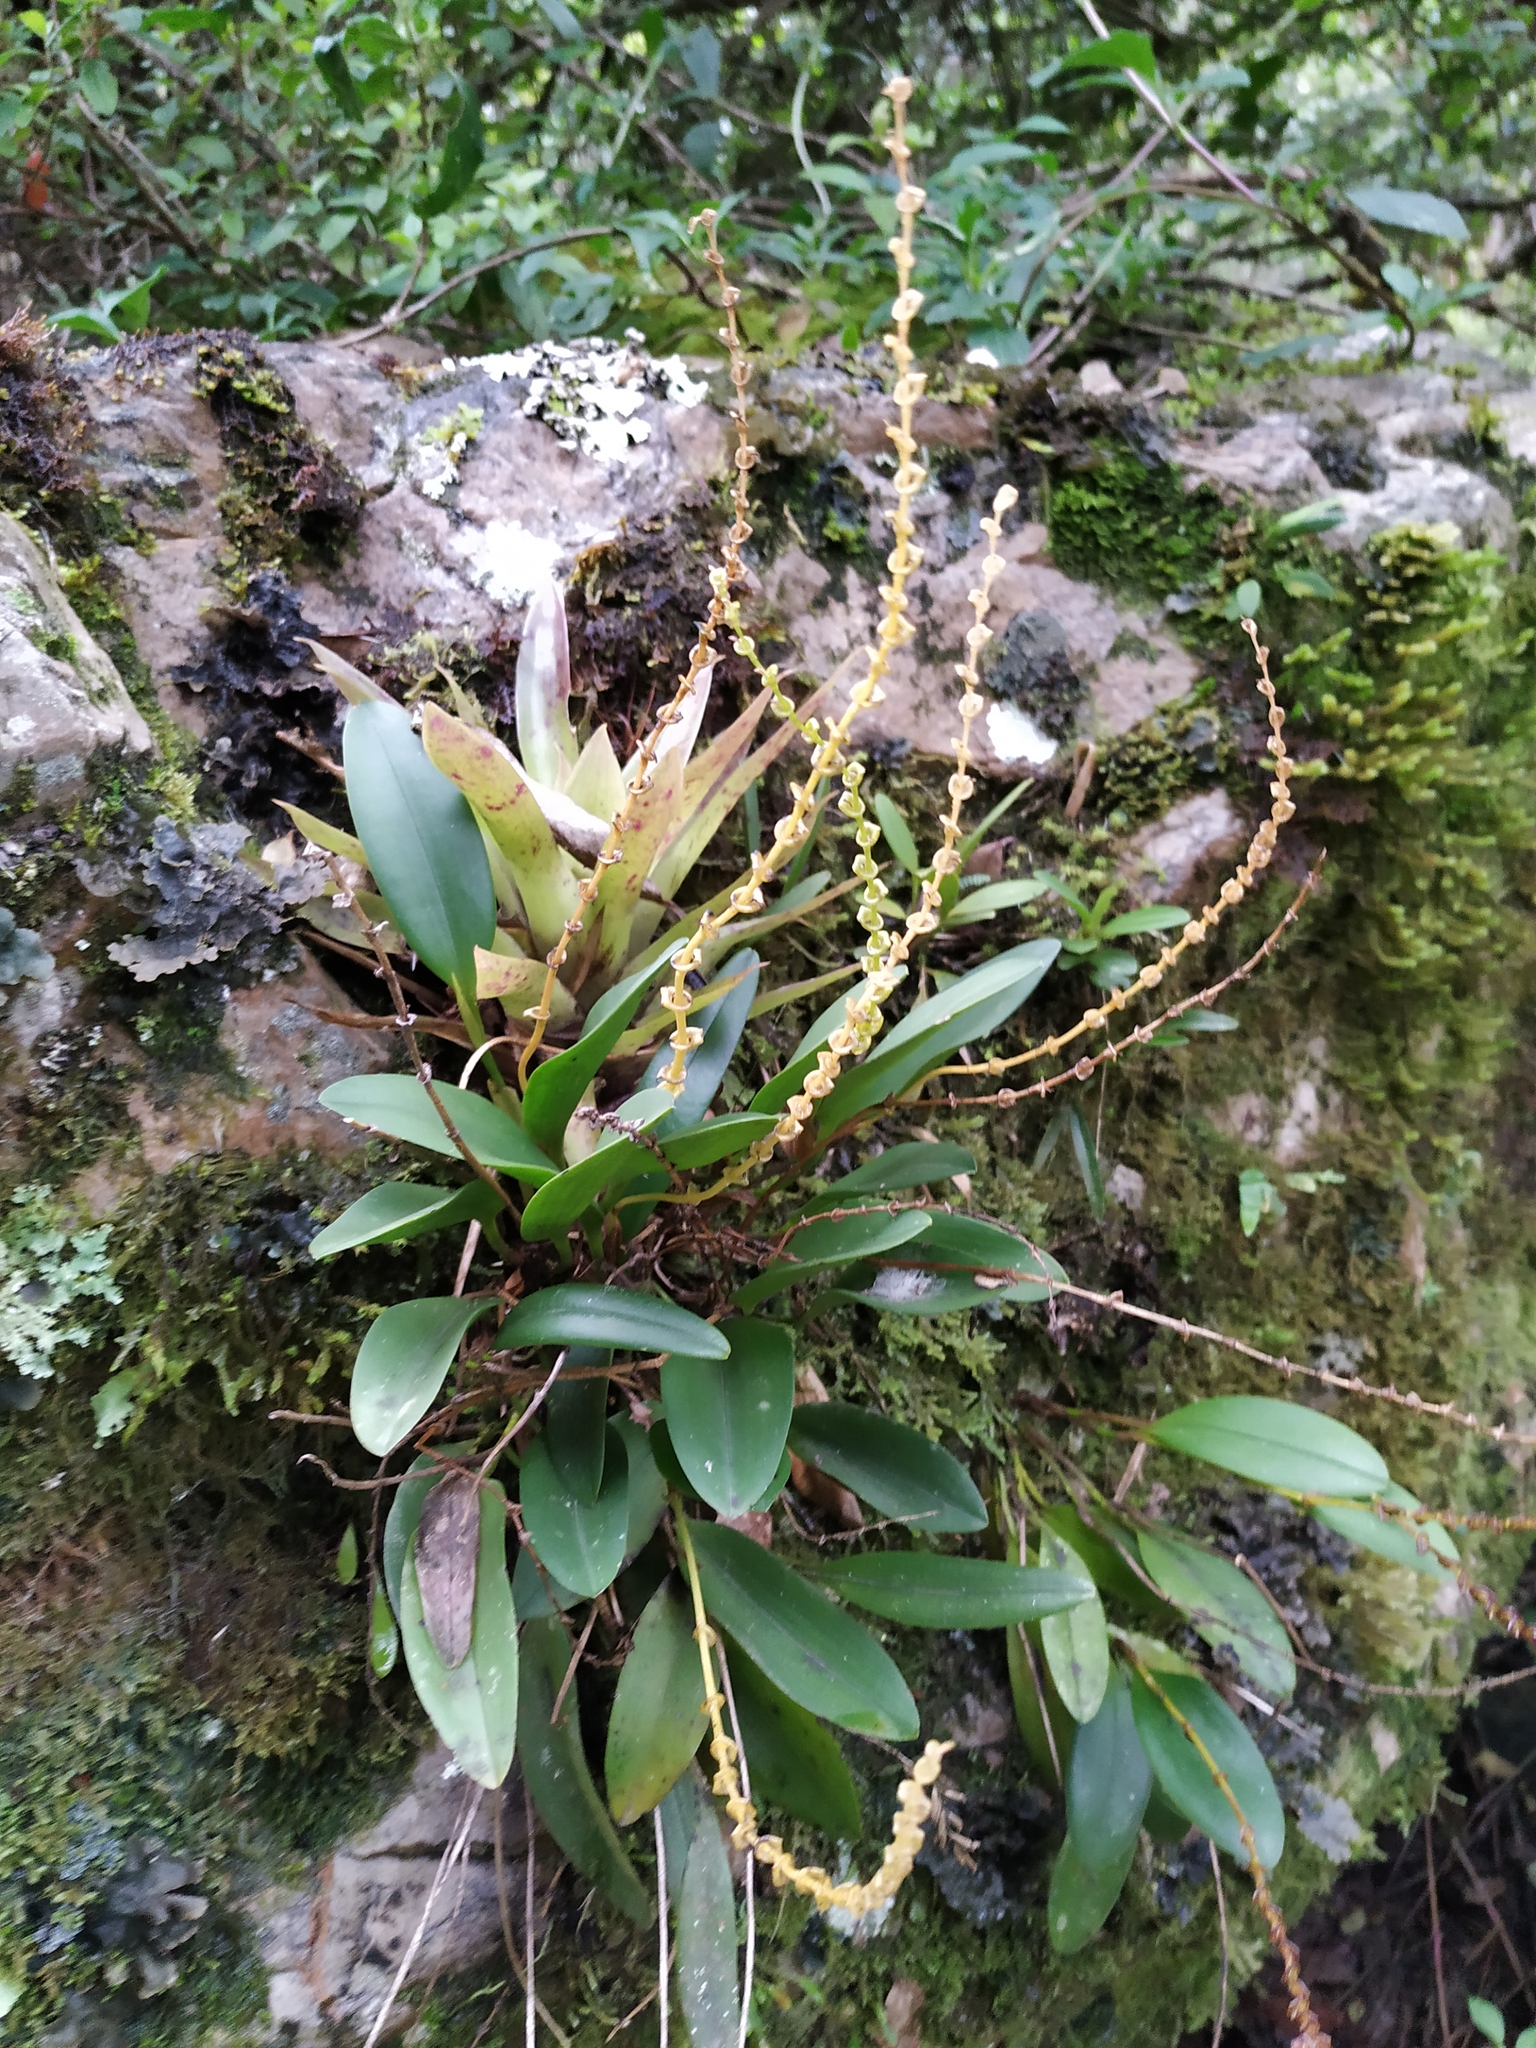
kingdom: Plantae
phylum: Tracheophyta
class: Liliopsida
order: Asparagales
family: Orchidaceae
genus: Stelis
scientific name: Stelis lankesteri
